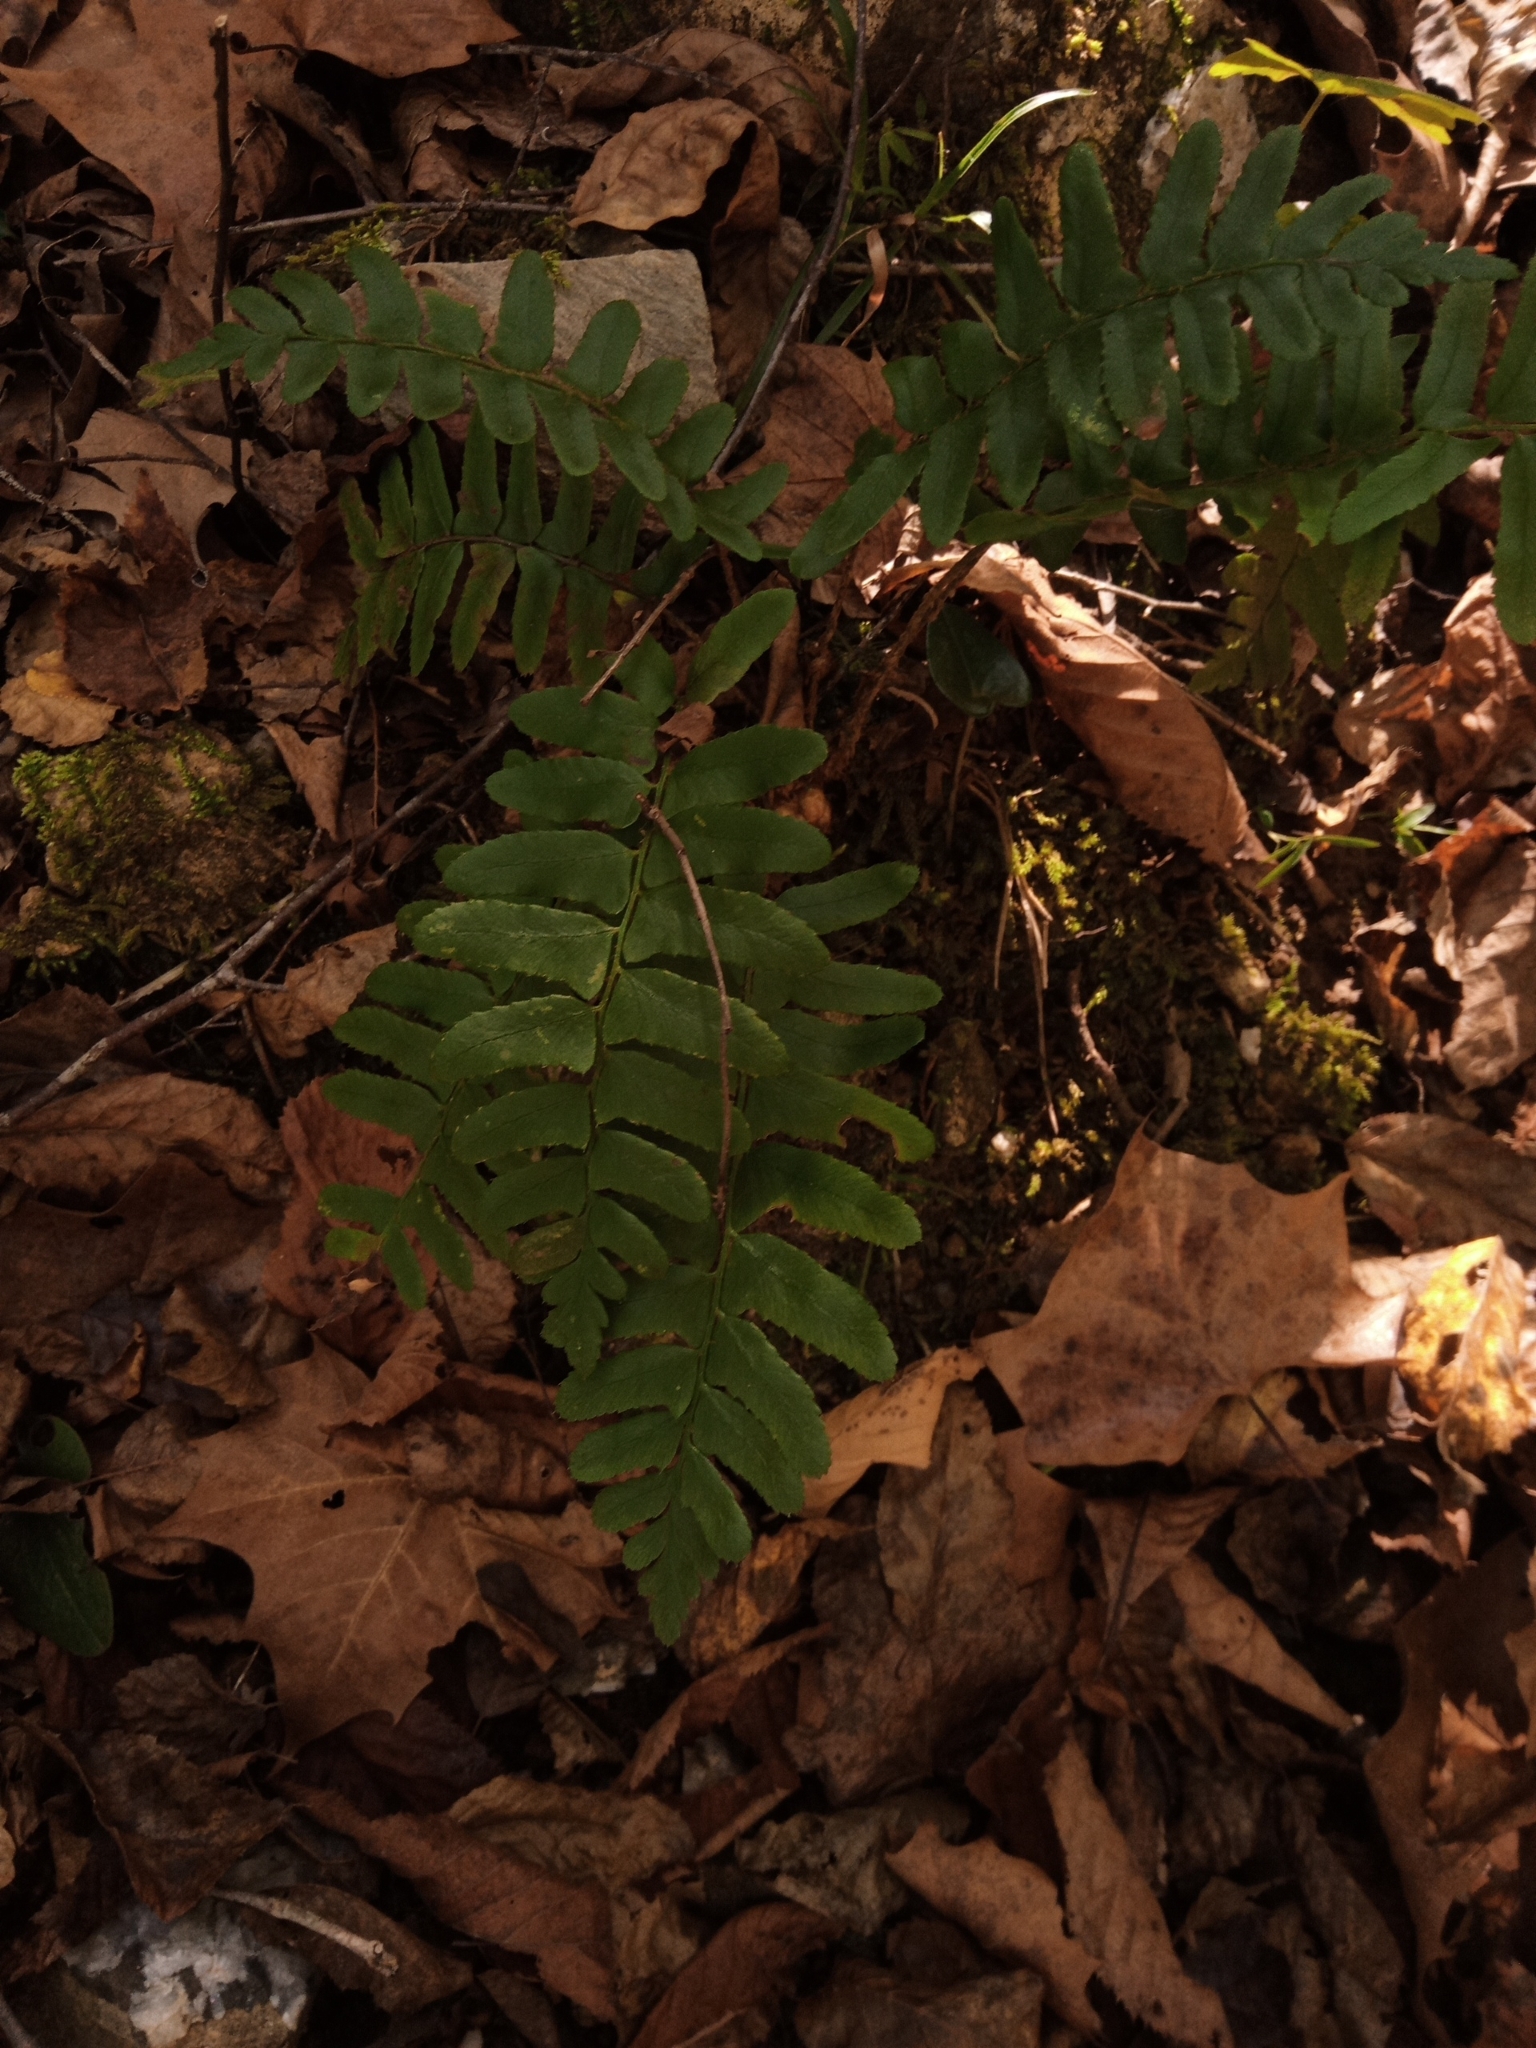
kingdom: Plantae
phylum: Tracheophyta
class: Polypodiopsida
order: Polypodiales
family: Dryopteridaceae
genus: Polystichum
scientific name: Polystichum acrostichoides
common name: Christmas fern
